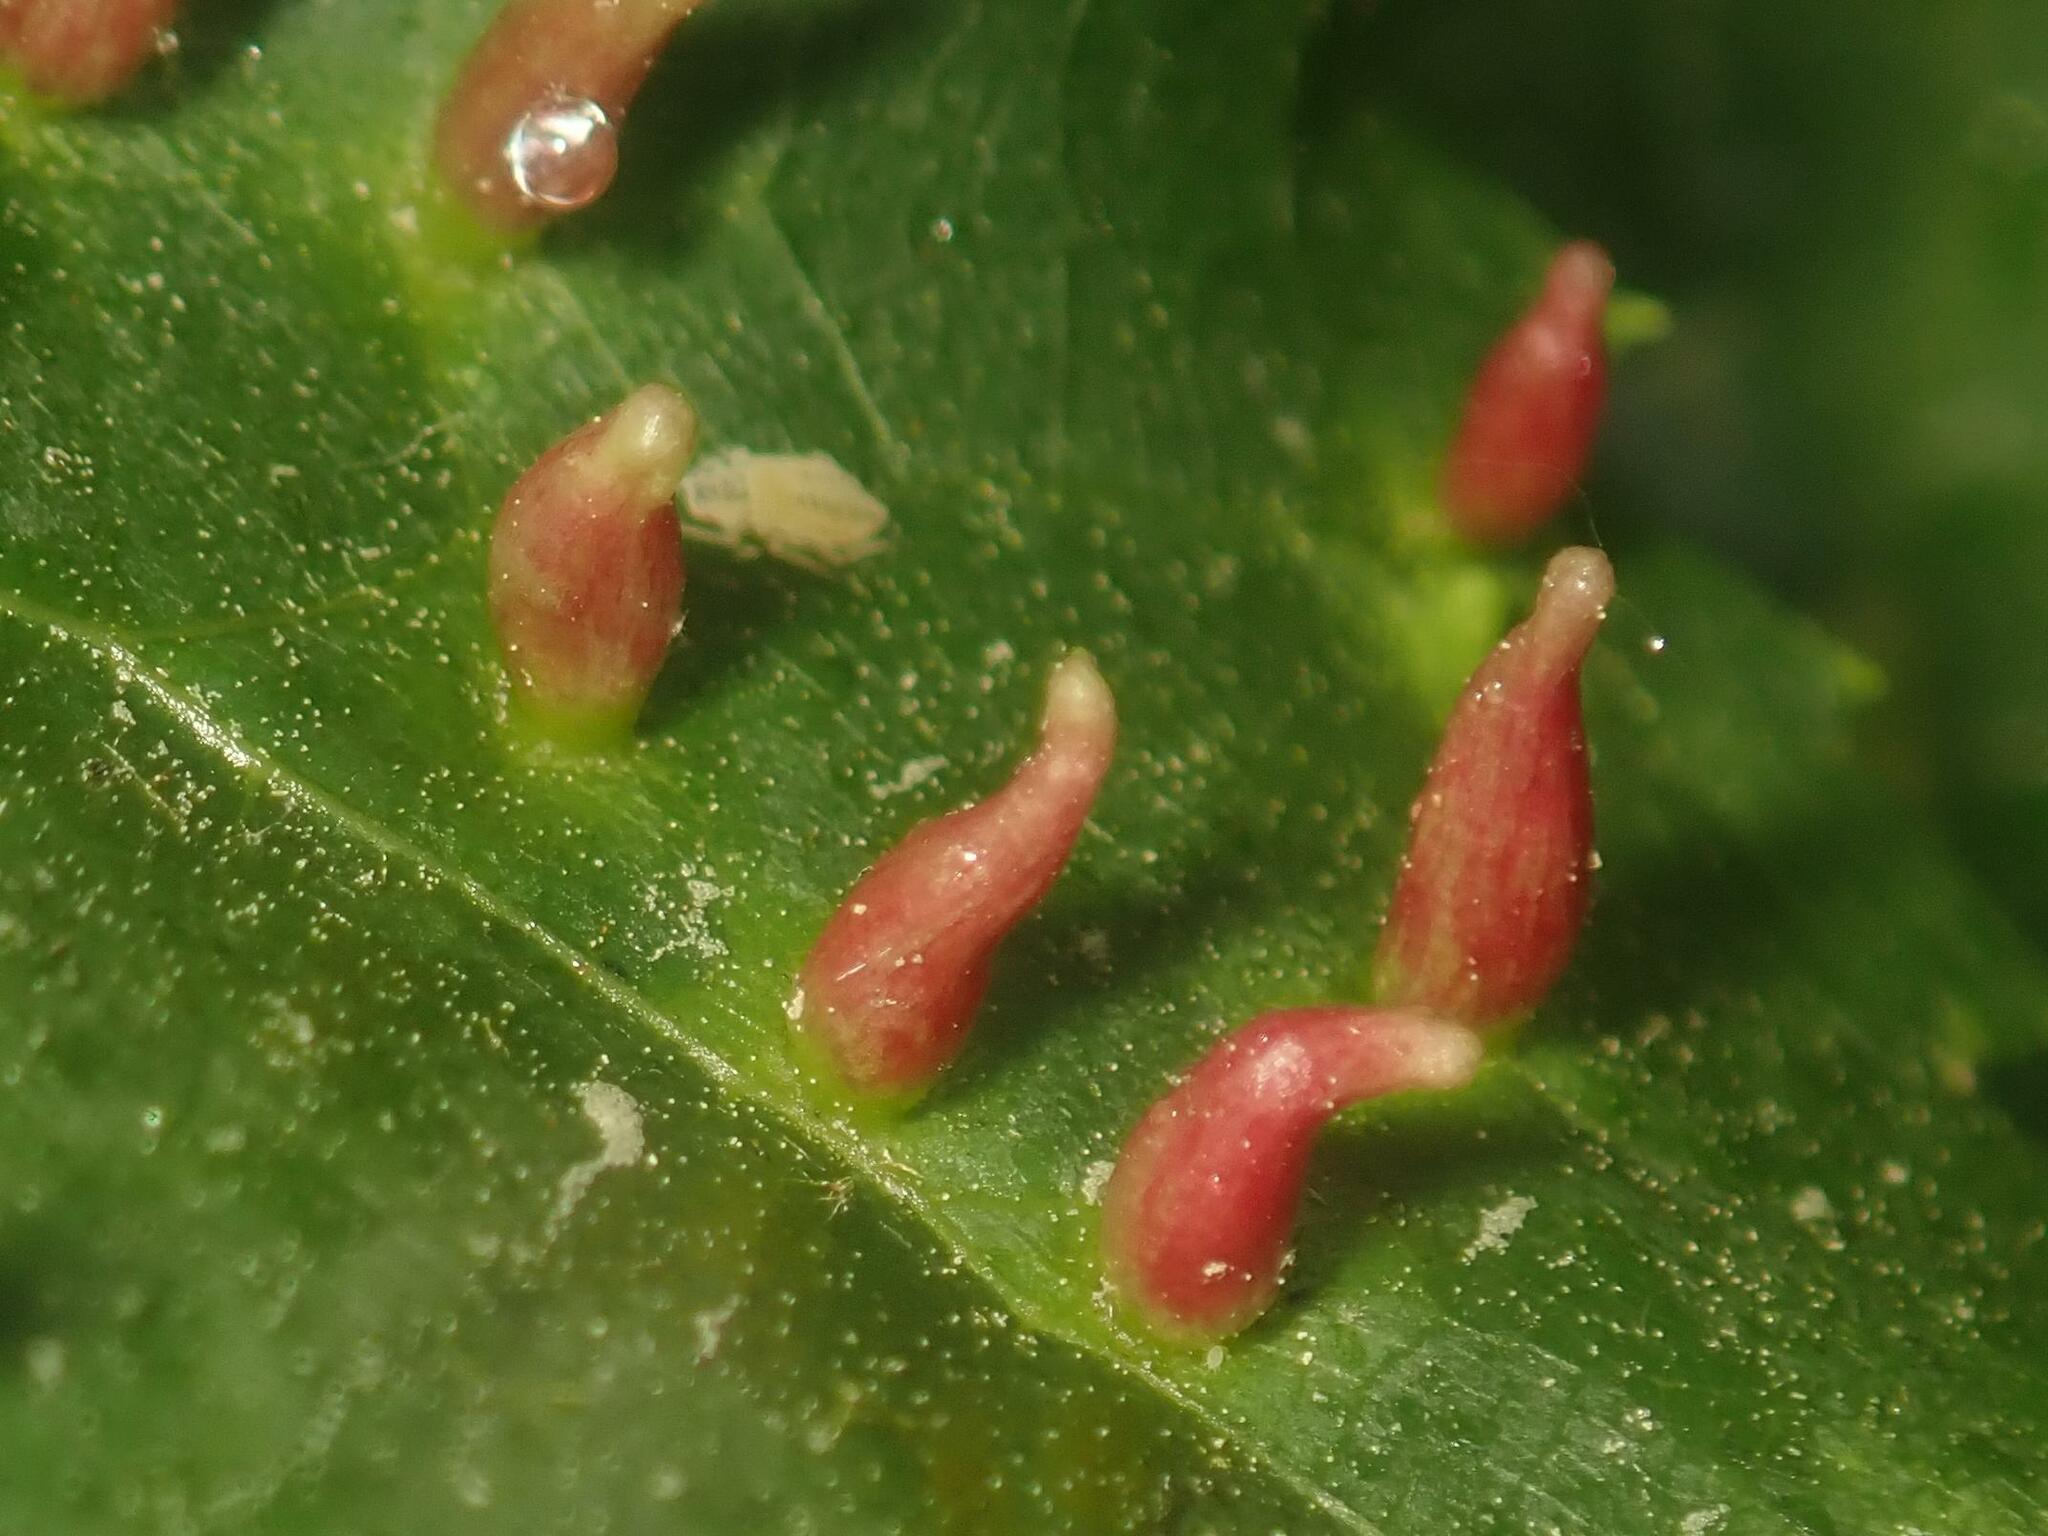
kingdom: Animalia
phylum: Arthropoda
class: Arachnida
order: Trombidiformes
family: Eriophyidae
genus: Eriophyes
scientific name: Eriophyes tiliae
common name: Red nail gall mite
